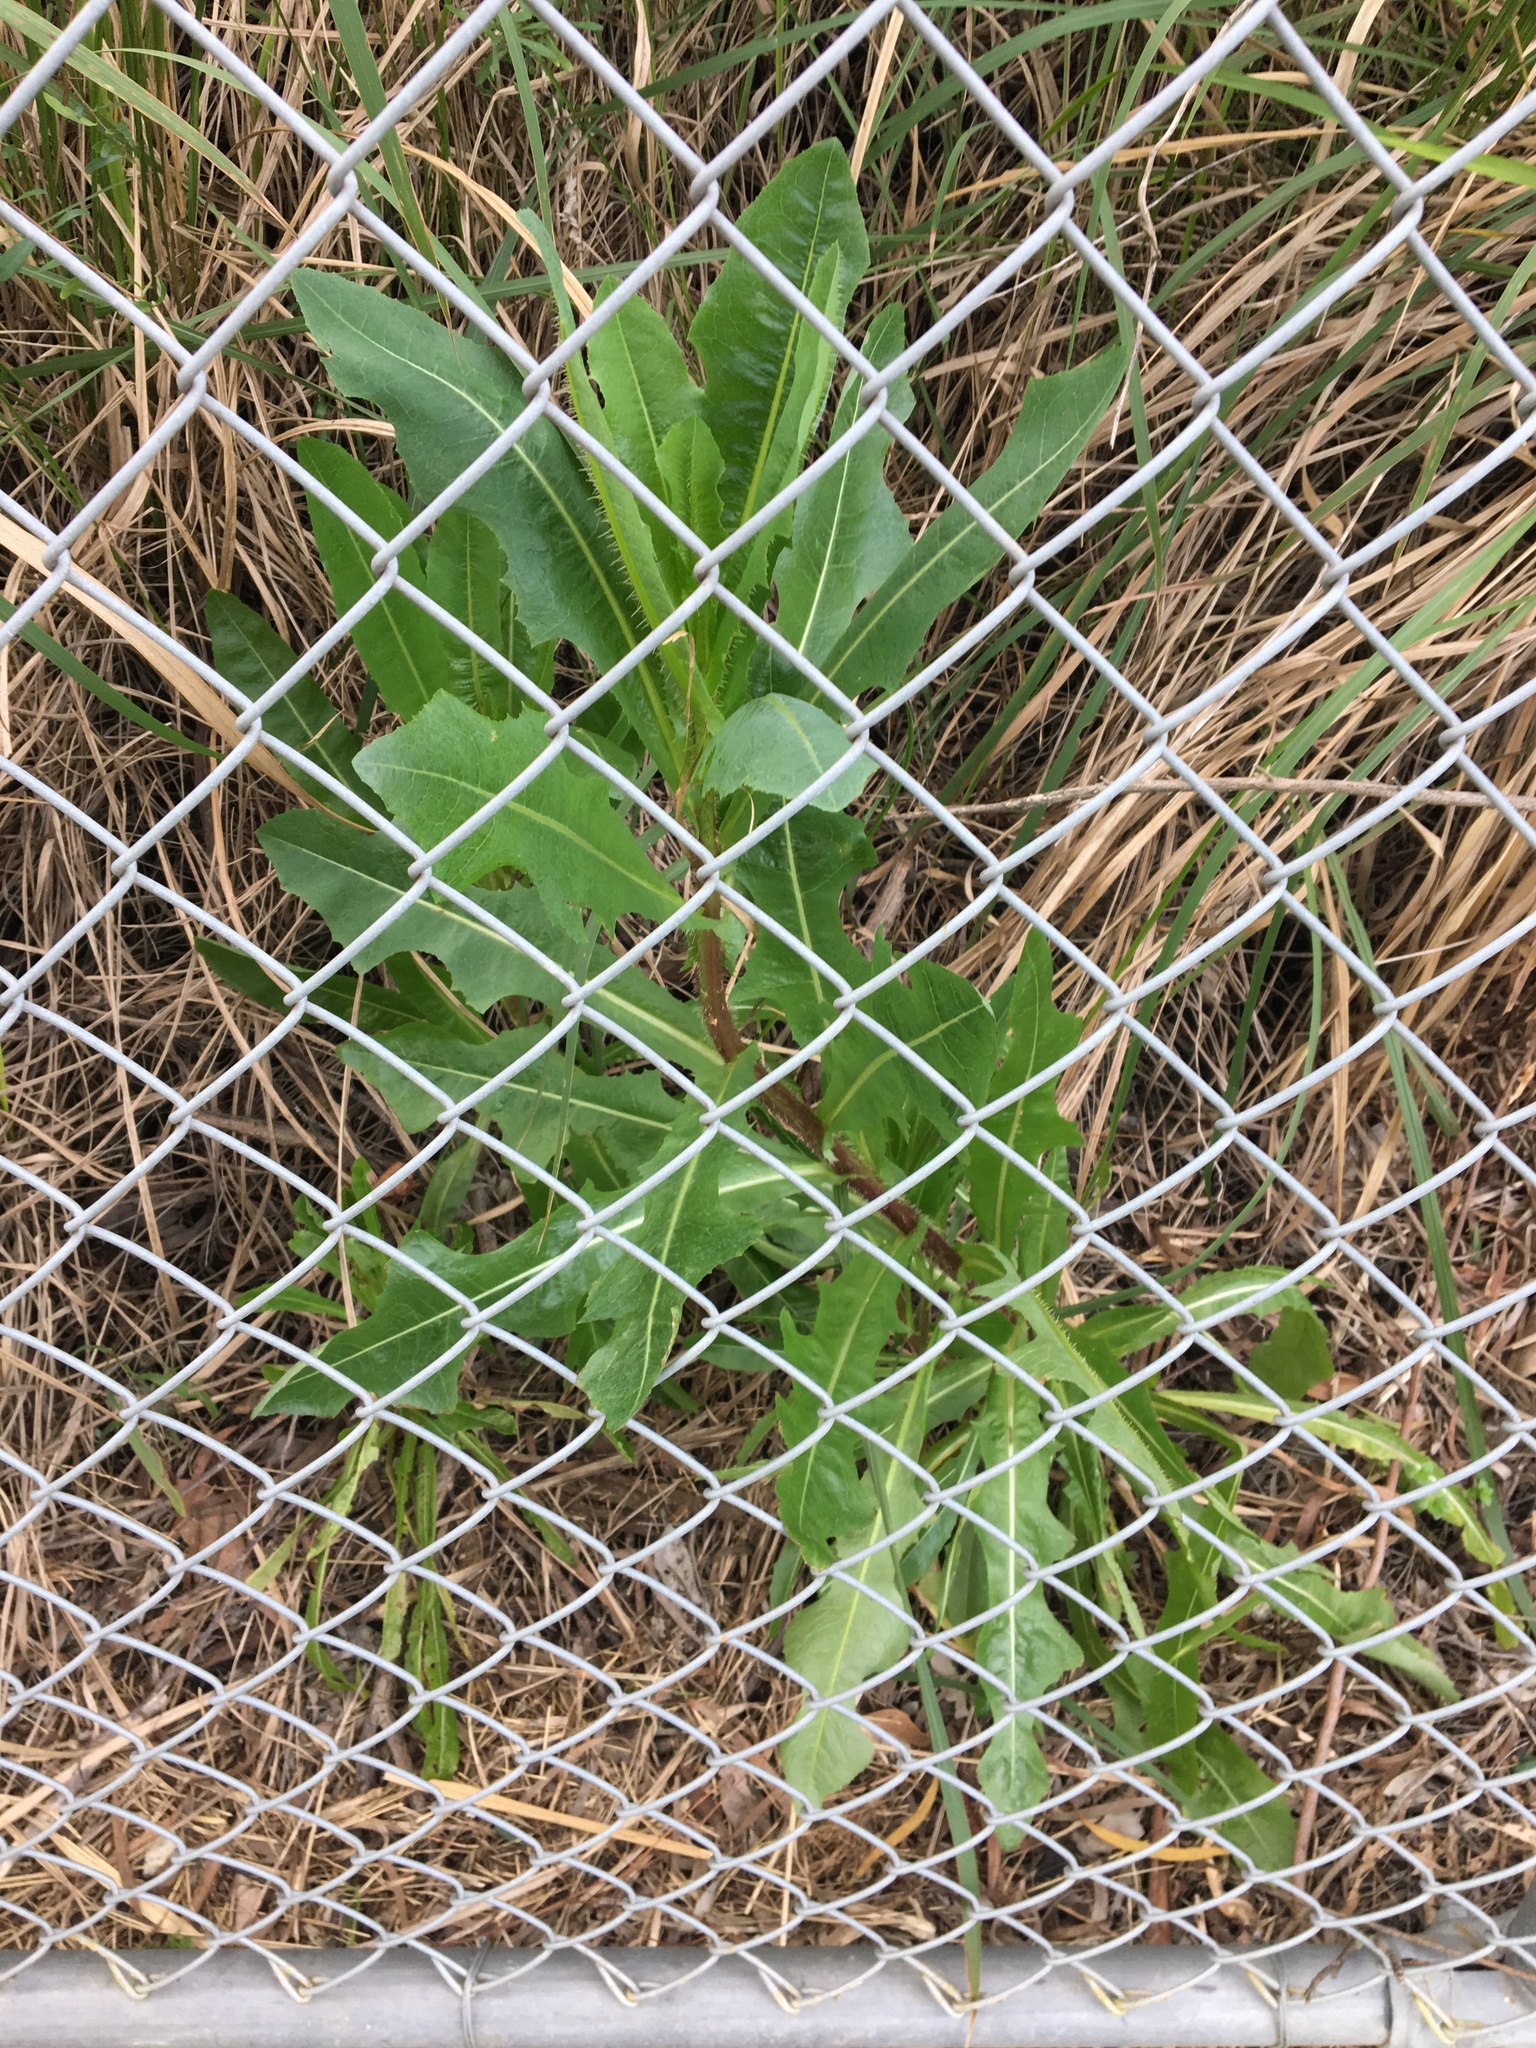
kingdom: Plantae
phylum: Tracheophyta
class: Magnoliopsida
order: Asterales
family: Asteraceae
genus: Lactuca
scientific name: Lactuca serriola
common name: Prickly lettuce
